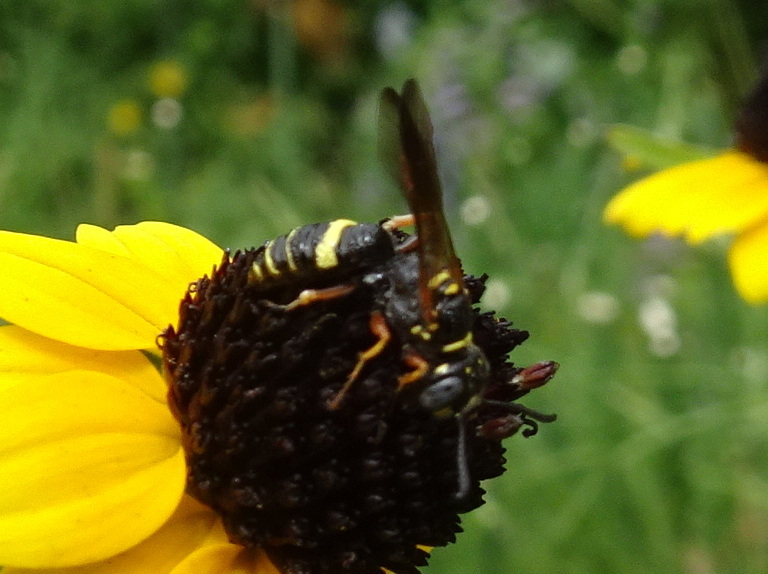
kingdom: Animalia
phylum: Arthropoda
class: Insecta
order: Hymenoptera
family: Crabronidae
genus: Philanthus
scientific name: Philanthus gibbosus
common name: Humped beewolf
